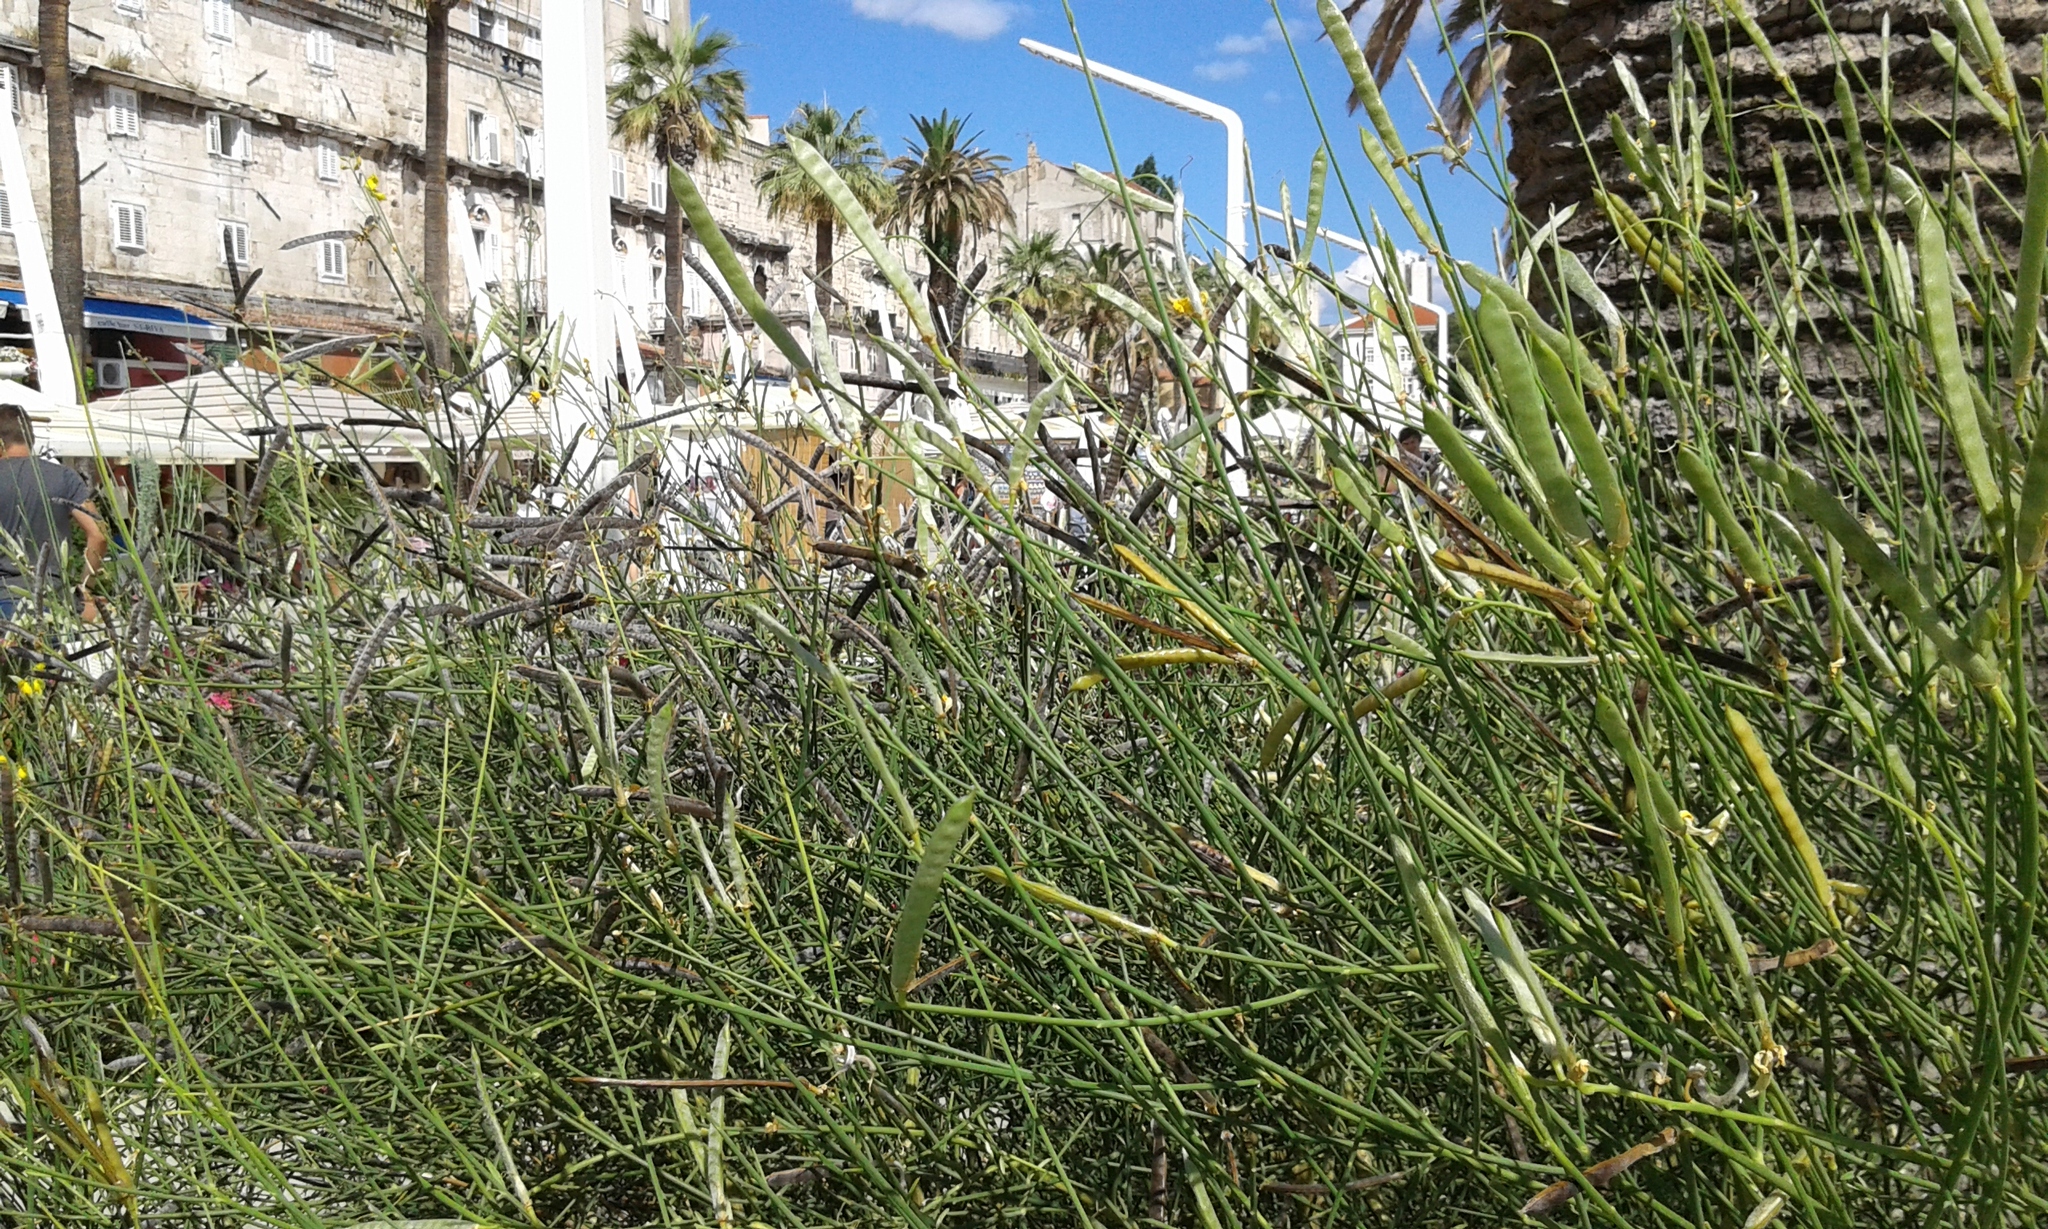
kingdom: Plantae
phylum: Tracheophyta
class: Magnoliopsida
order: Fabales
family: Fabaceae
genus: Spartium
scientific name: Spartium junceum
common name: Spanish broom
